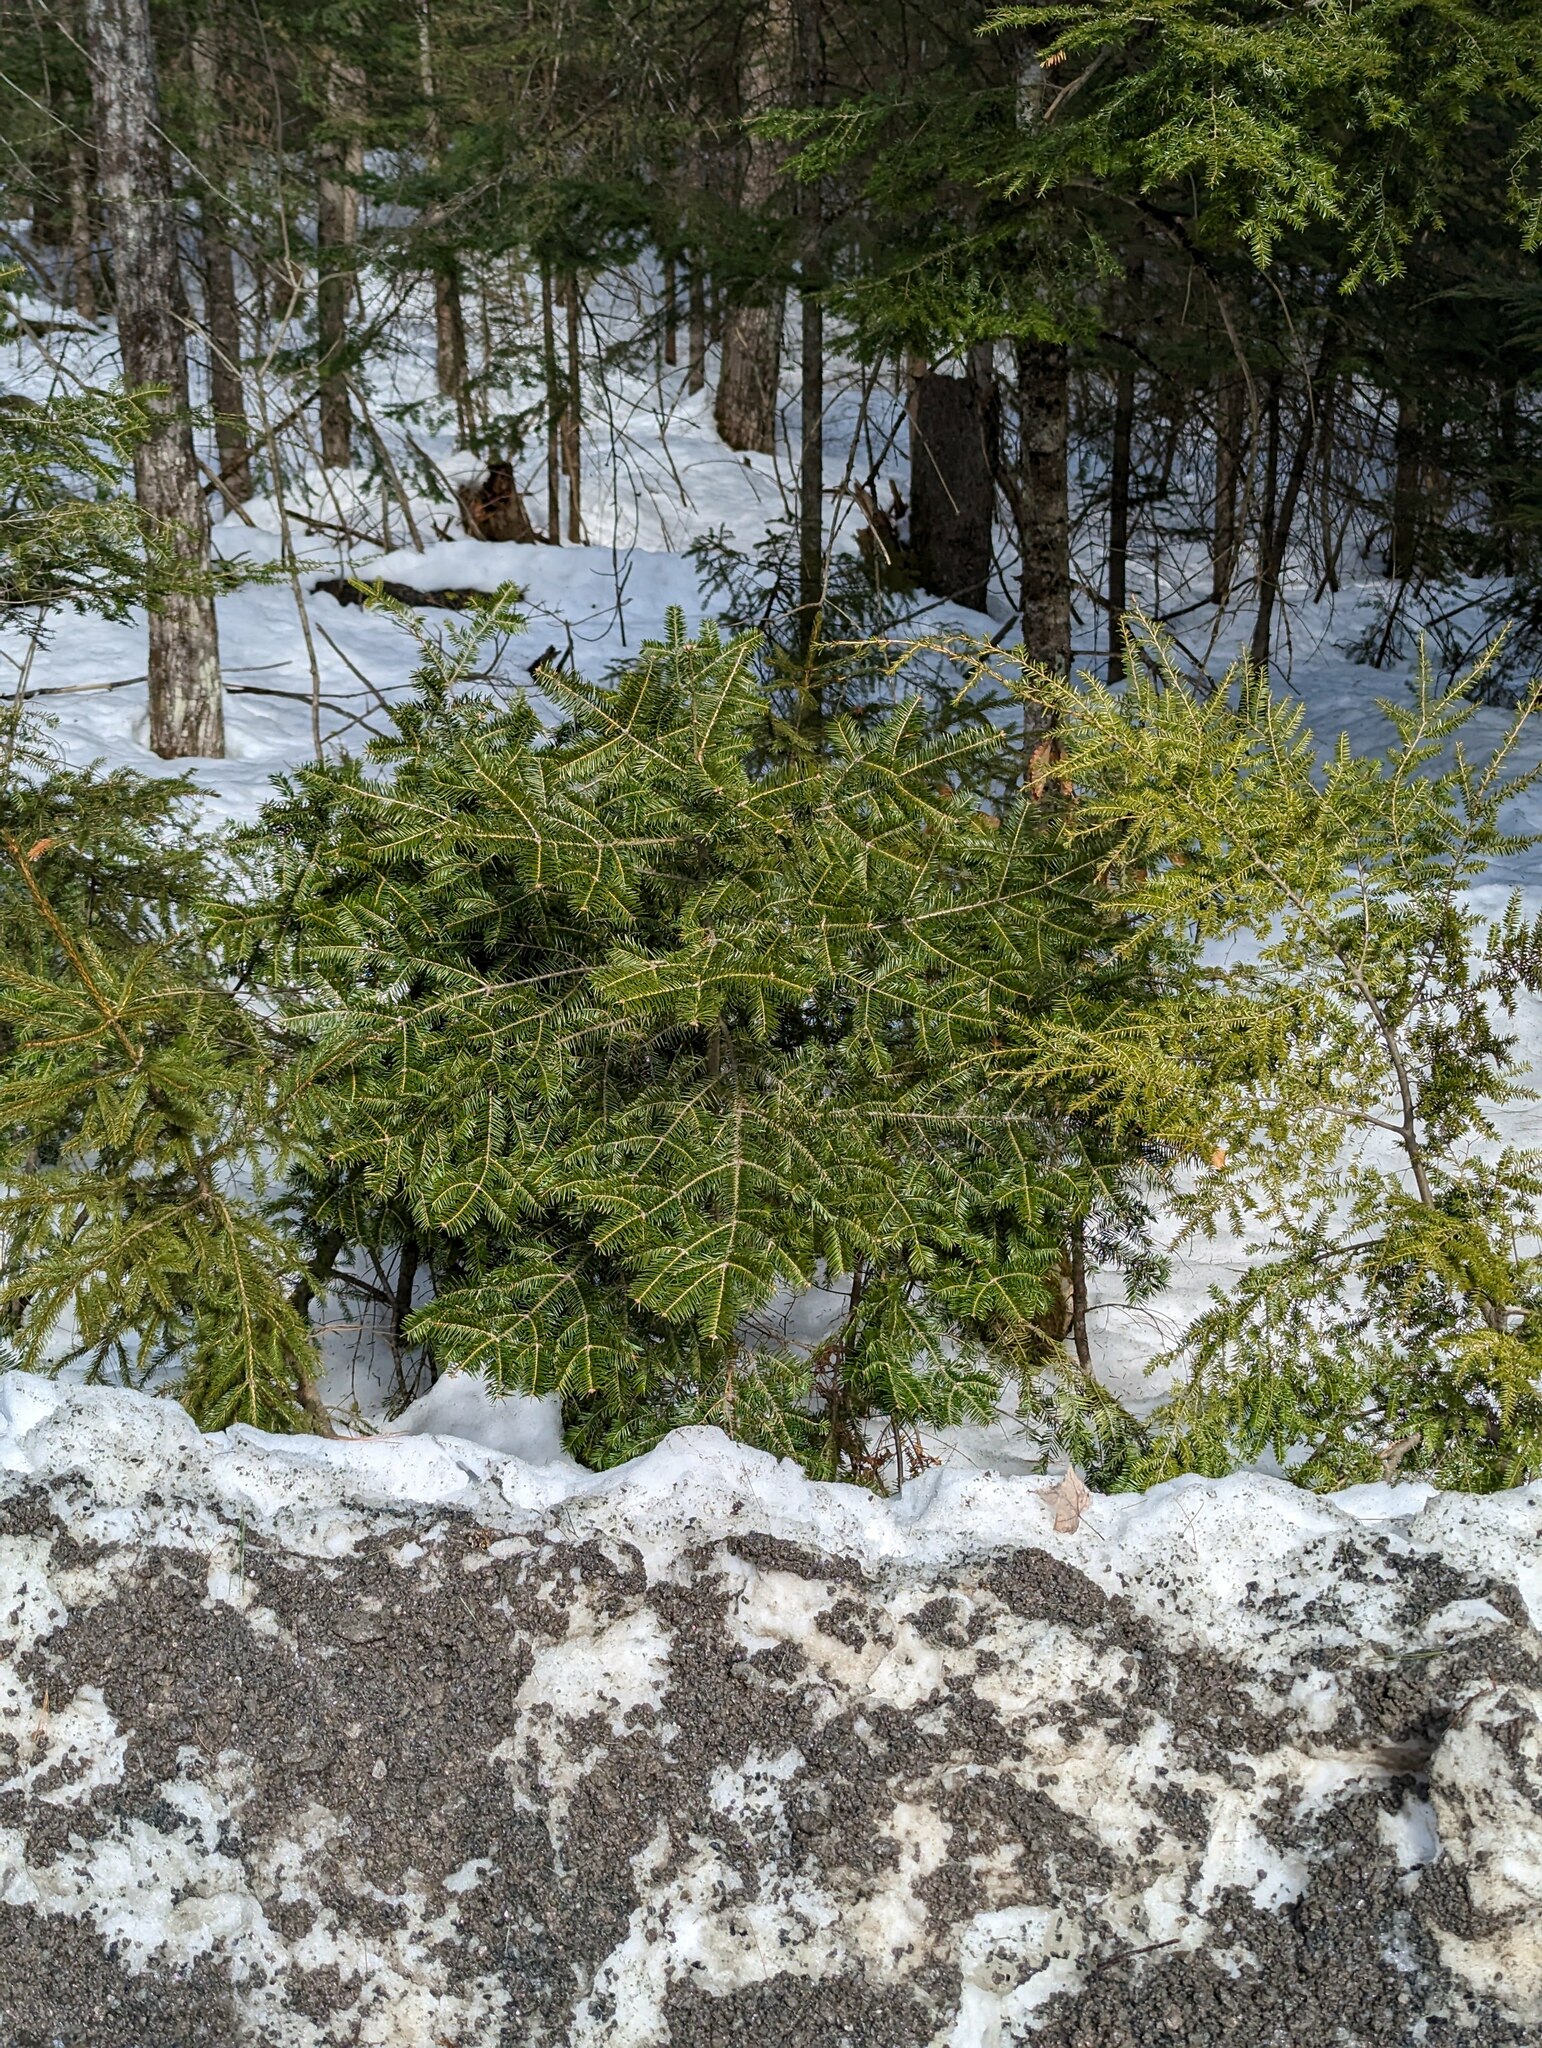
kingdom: Plantae
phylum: Tracheophyta
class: Pinopsida
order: Pinales
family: Pinaceae
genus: Abies
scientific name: Abies balsamea
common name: Balsam fir
